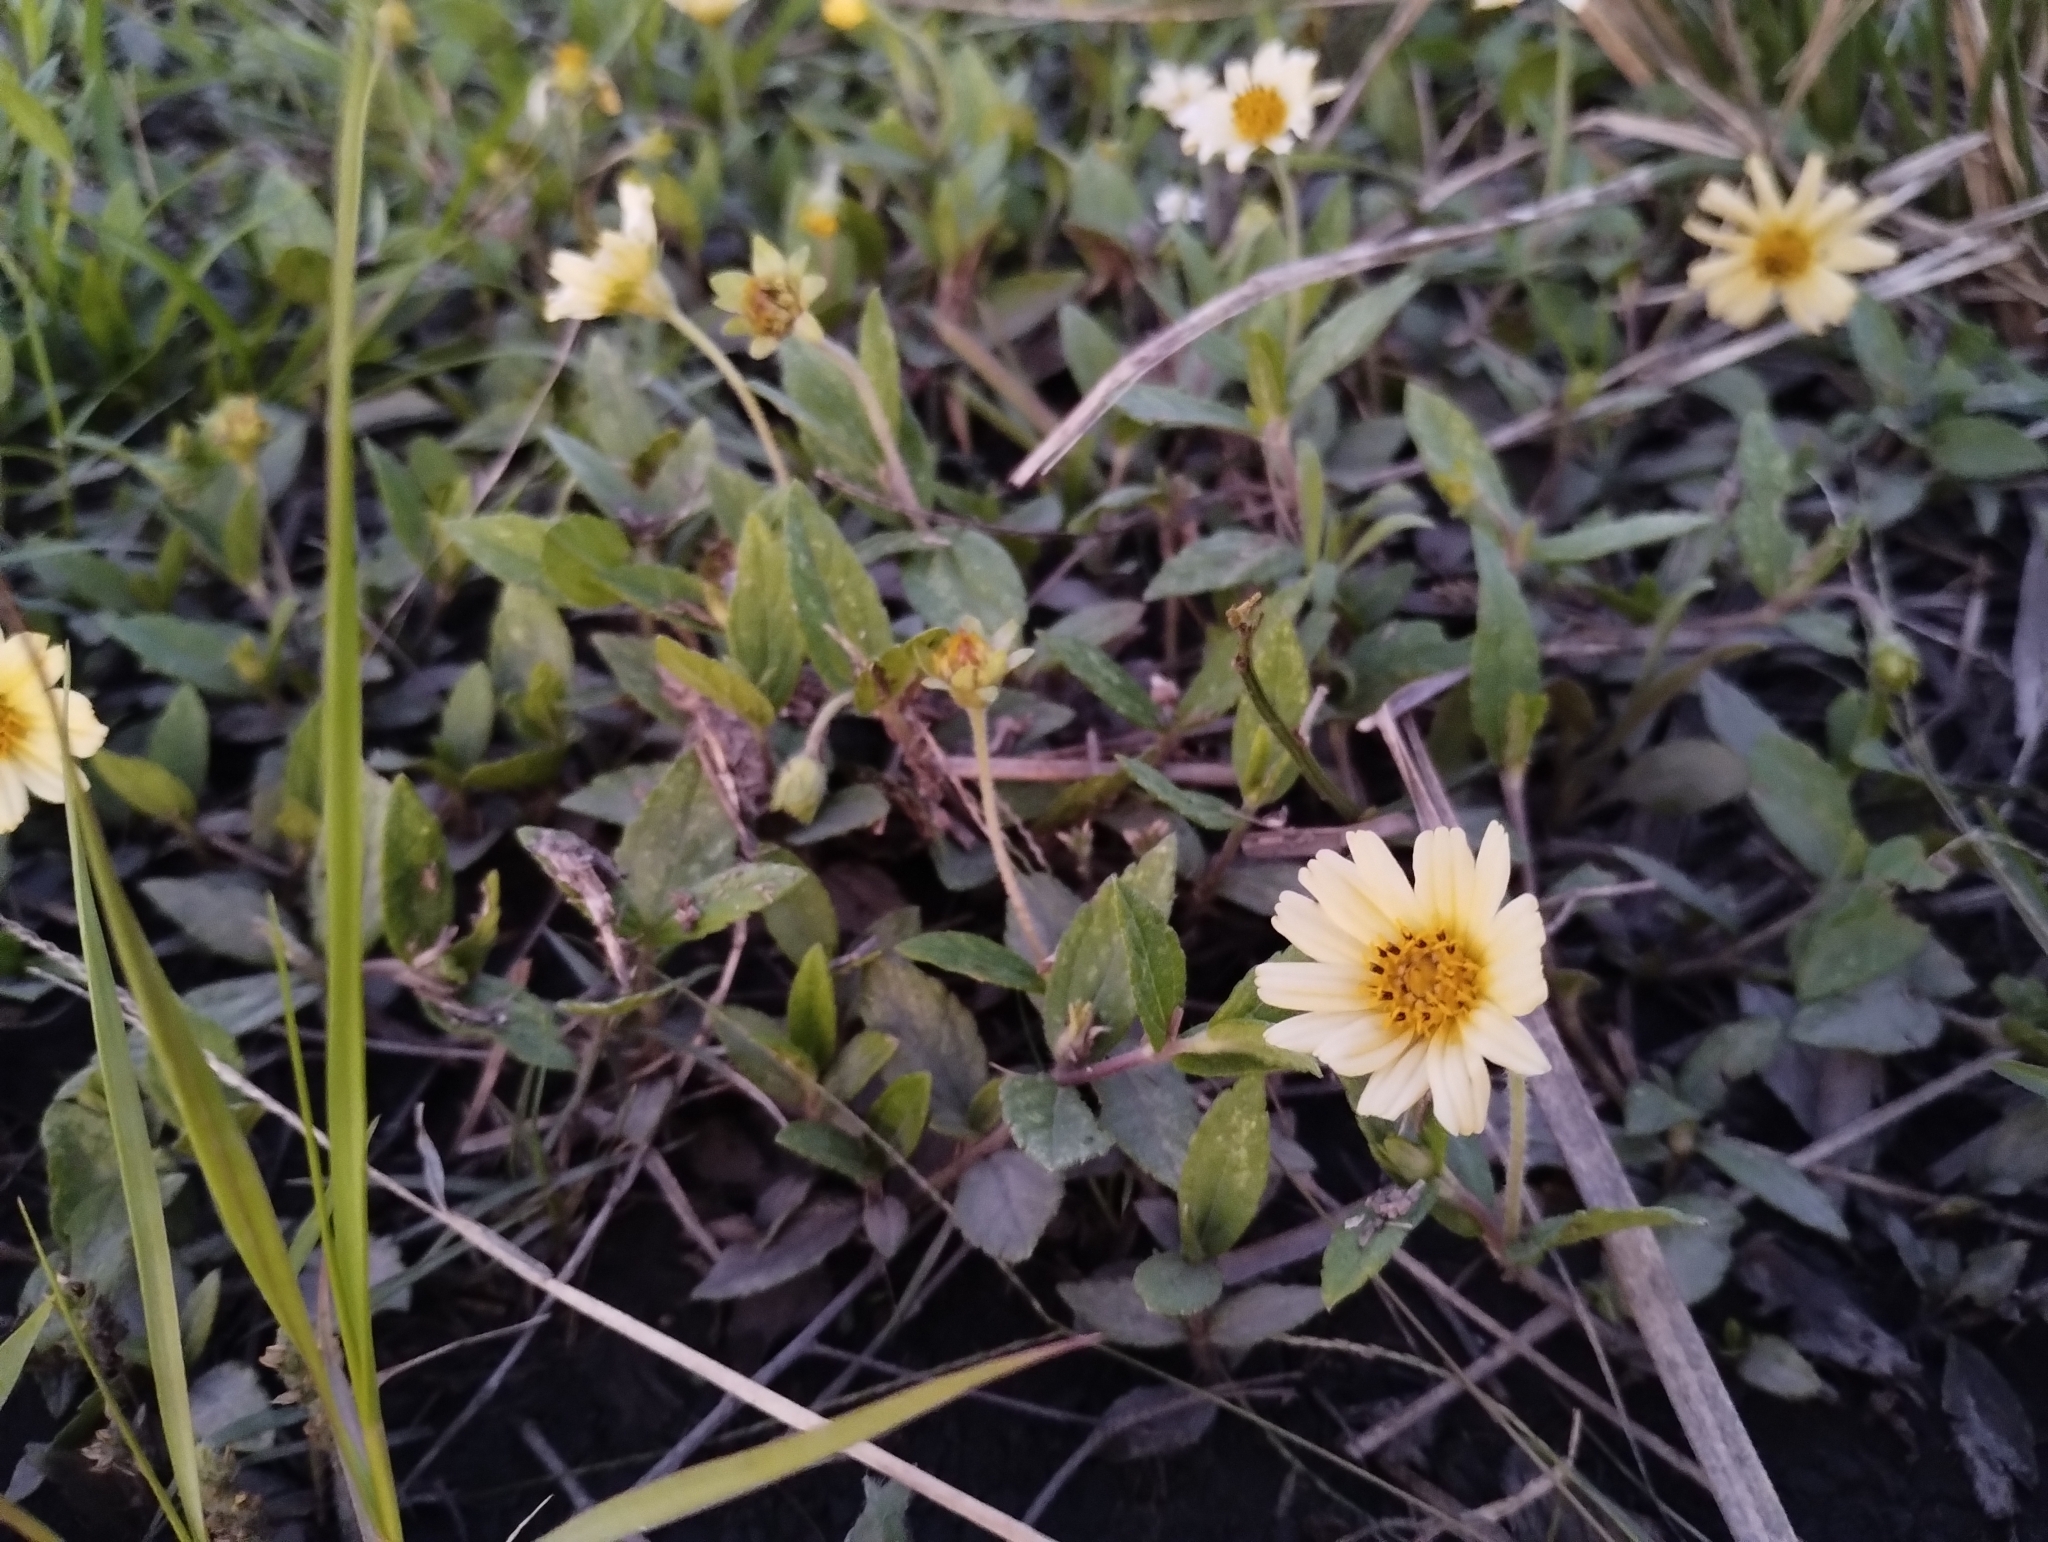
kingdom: Plantae
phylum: Tracheophyta
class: Magnoliopsida
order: Asterales
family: Asteraceae
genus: Sphagneticola
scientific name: Sphagneticola brachycarpa
